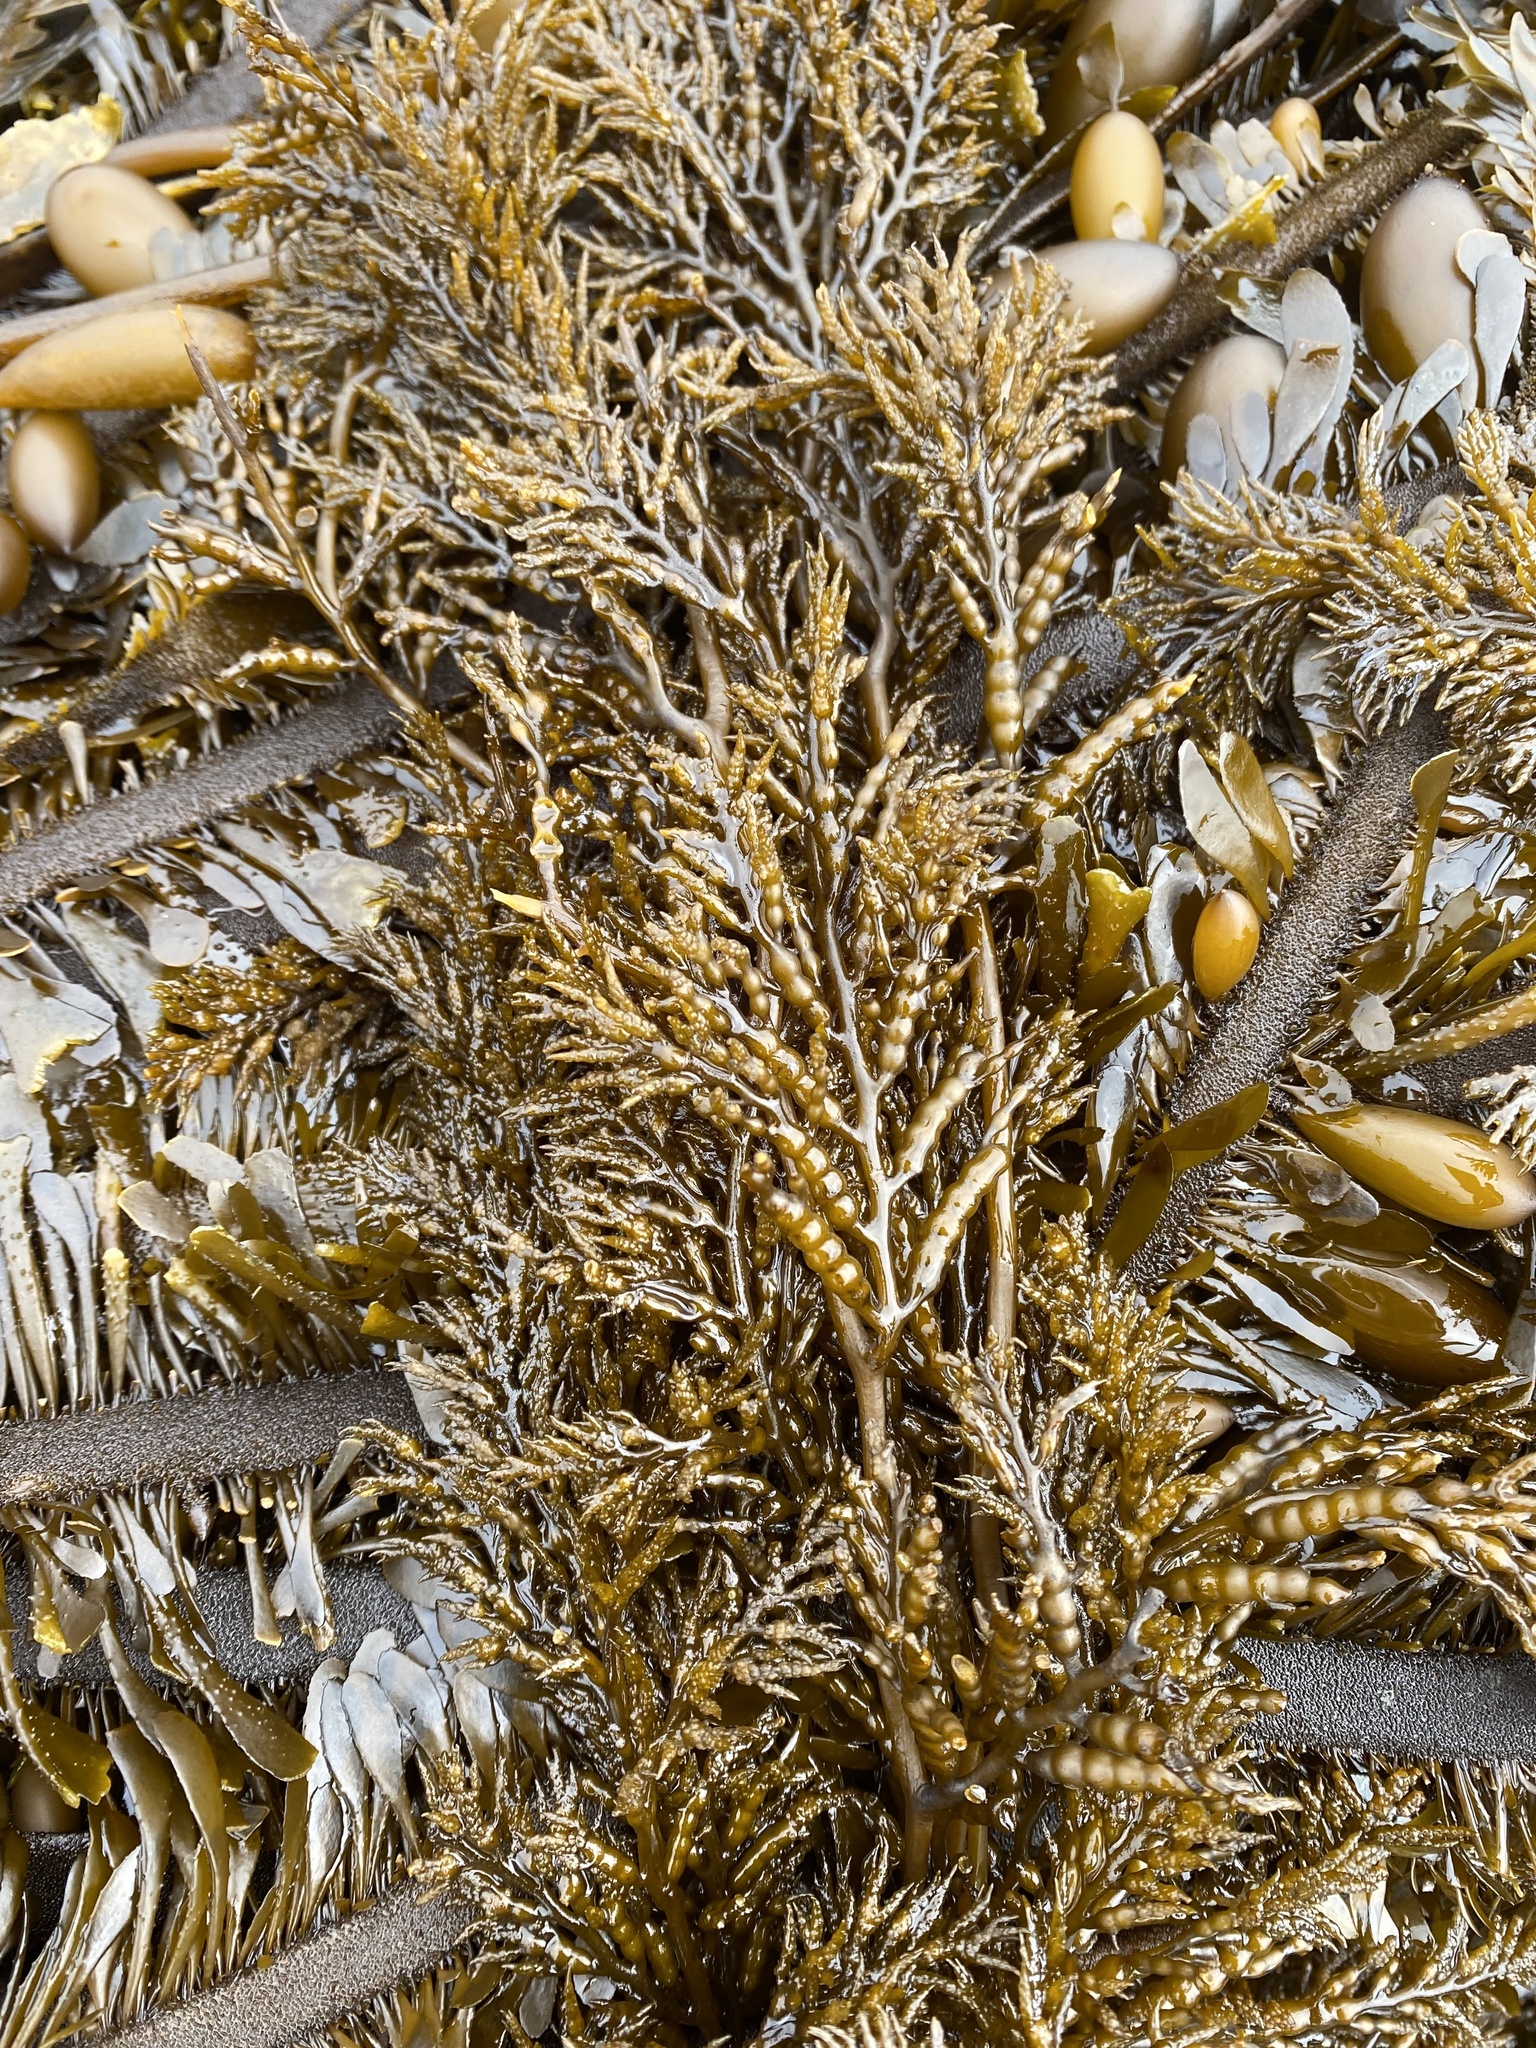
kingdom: Chromista
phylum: Ochrophyta
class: Phaeophyceae
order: Fucales
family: Sargassaceae
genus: Stephanocystis
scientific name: Stephanocystis
